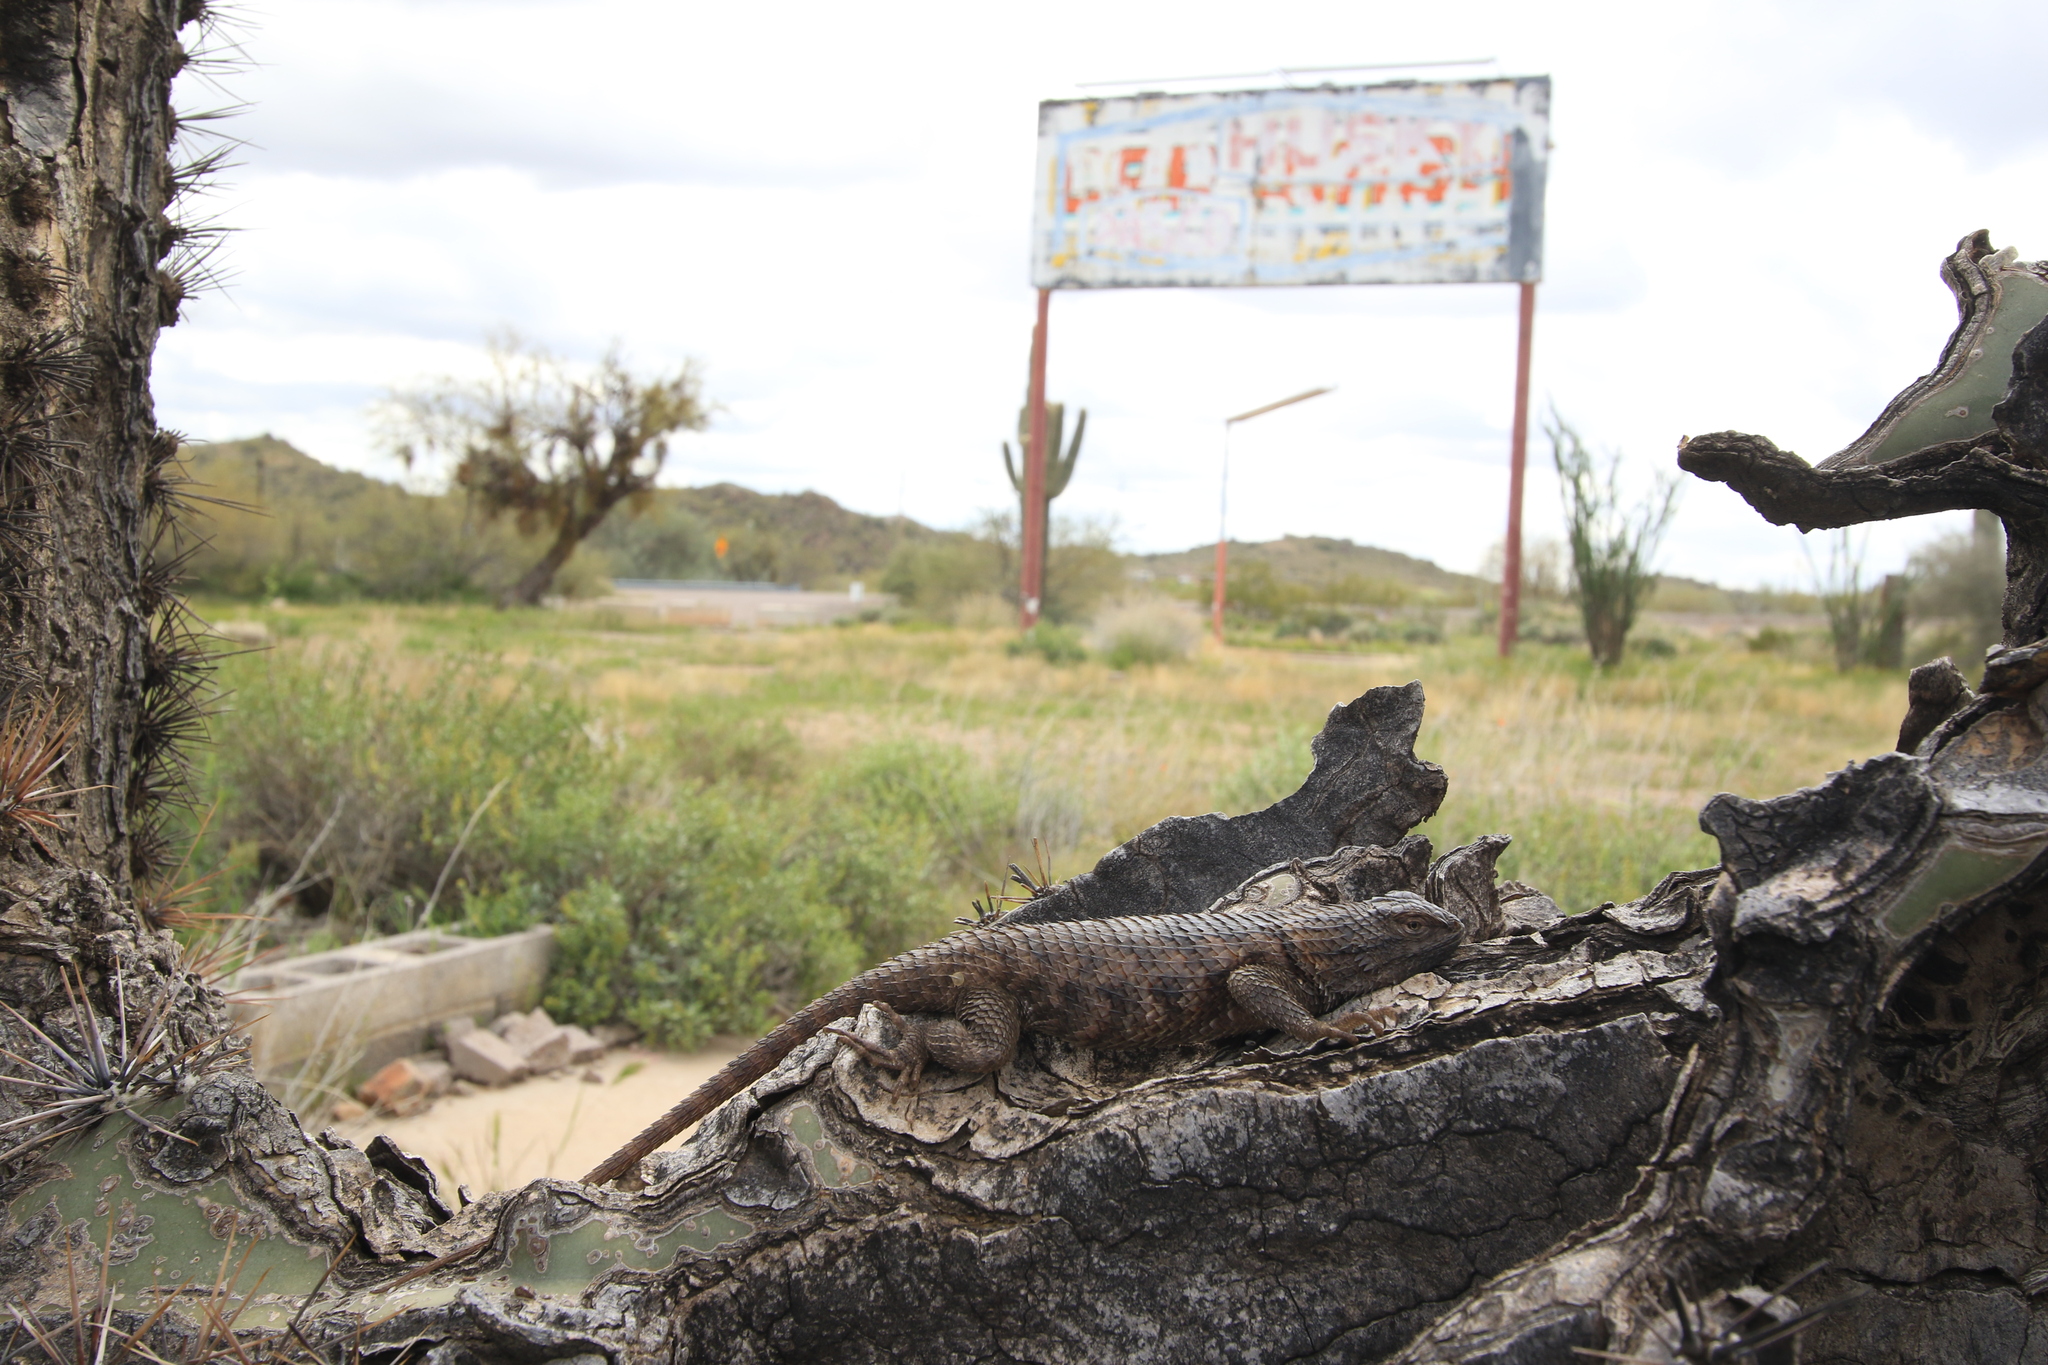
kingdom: Animalia
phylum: Chordata
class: Squamata
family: Phrynosomatidae
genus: Sceloporus
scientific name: Sceloporus magister
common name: Desert spiny lizard
